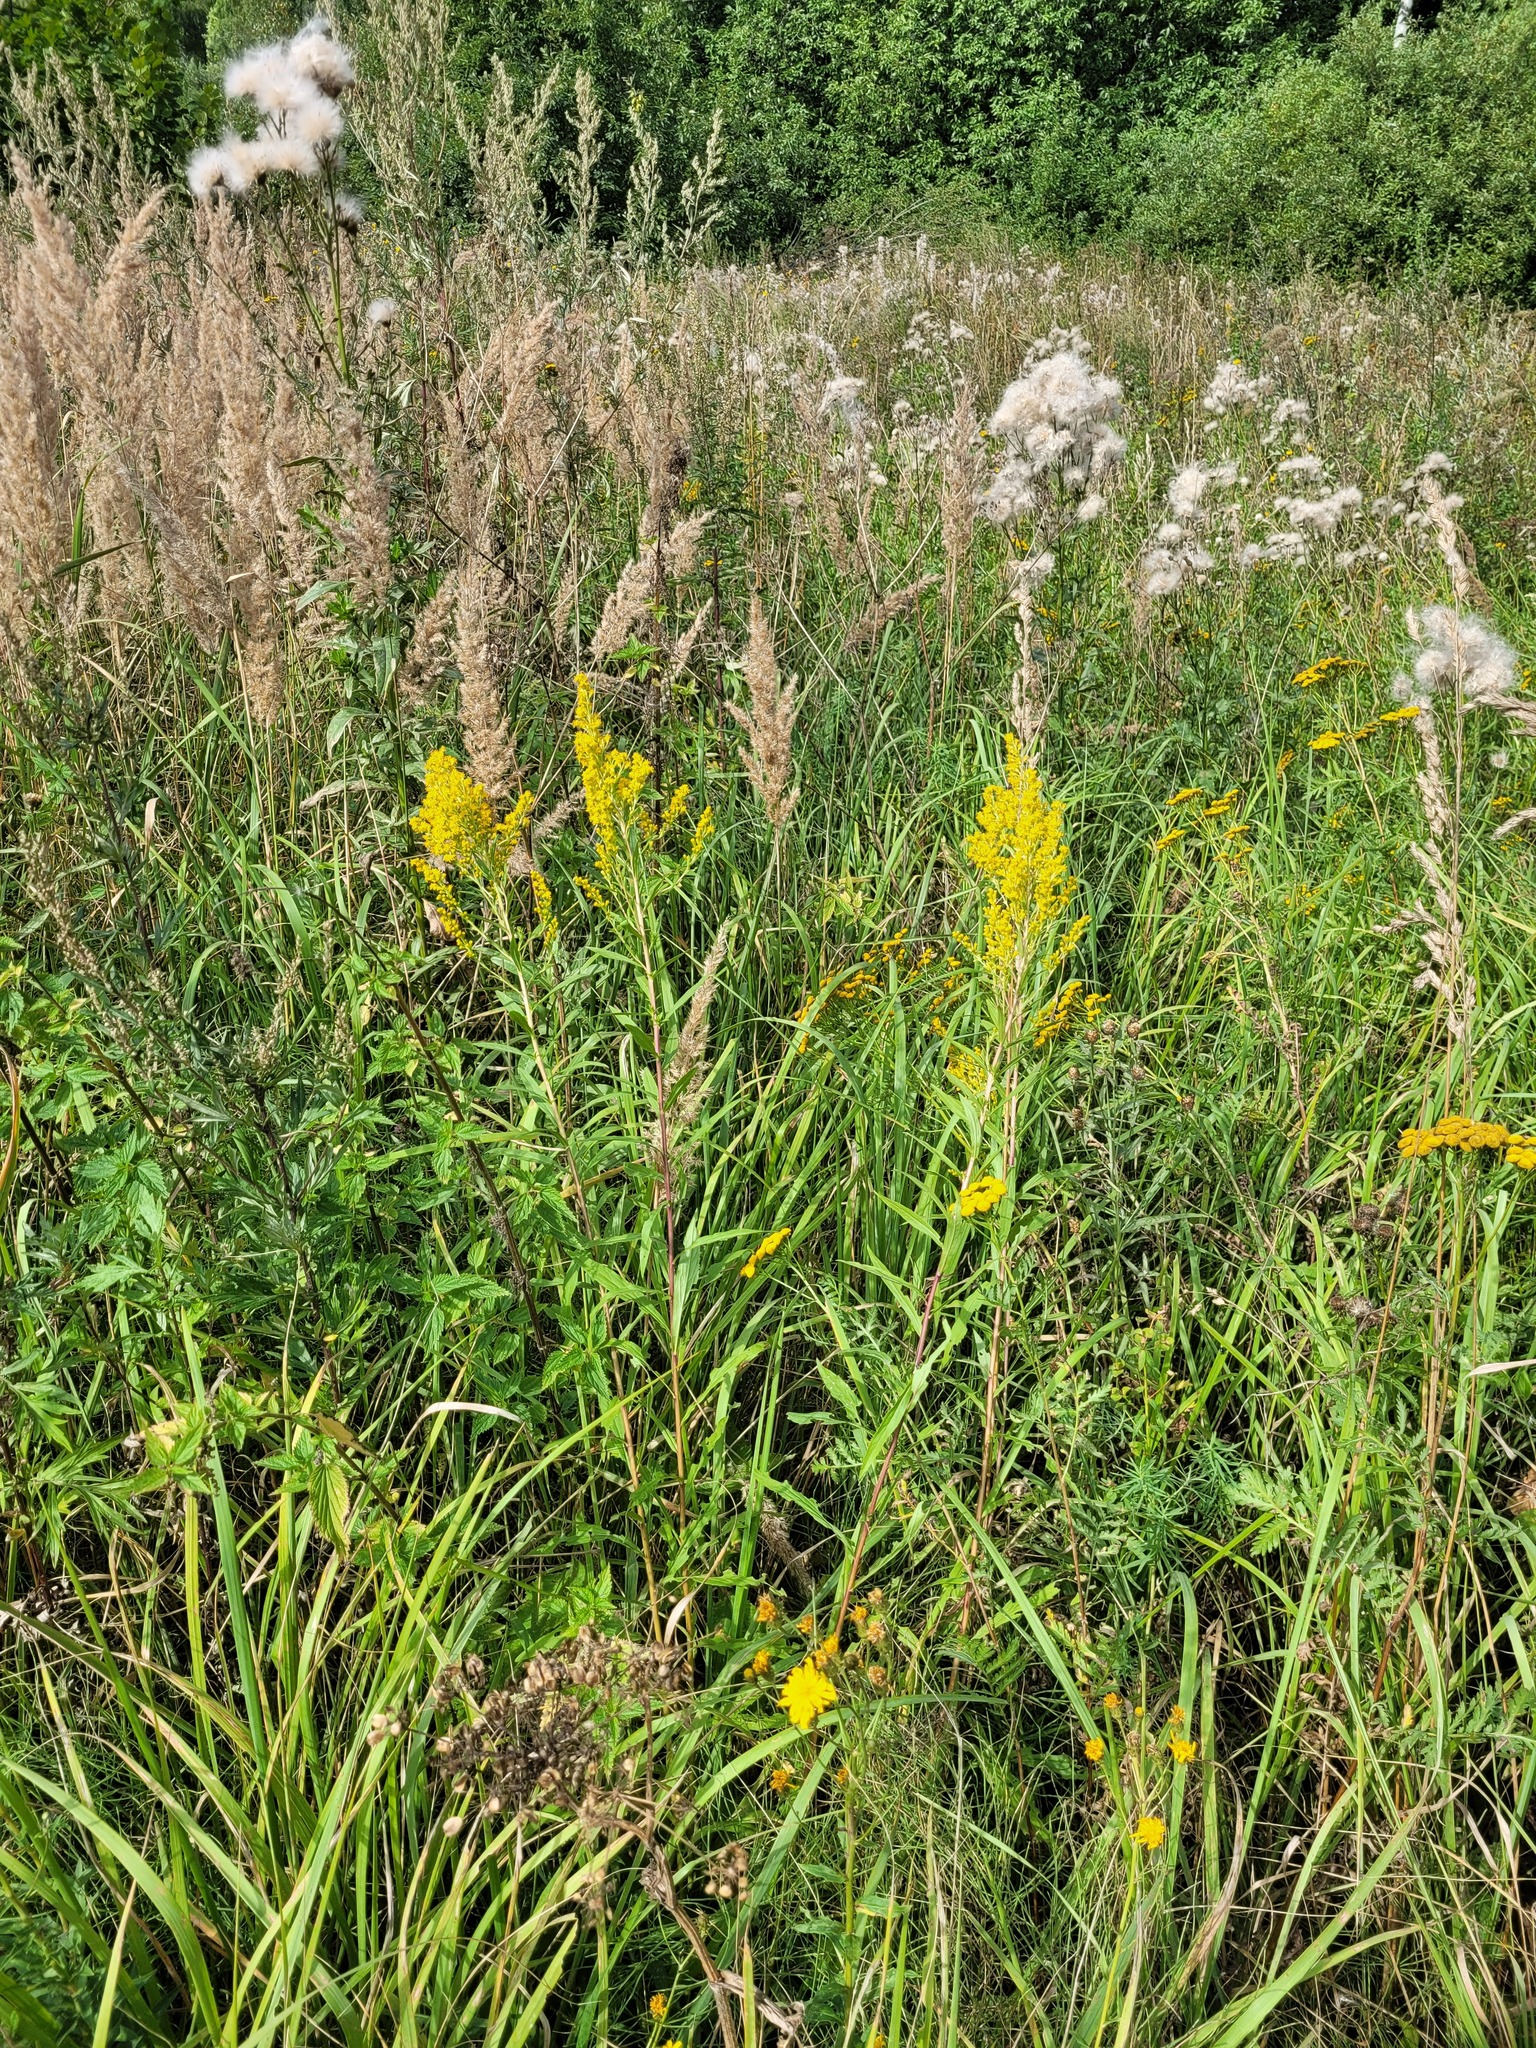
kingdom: Plantae
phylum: Tracheophyta
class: Magnoliopsida
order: Asterales
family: Asteraceae
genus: Solidago
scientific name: Solidago niederederi
